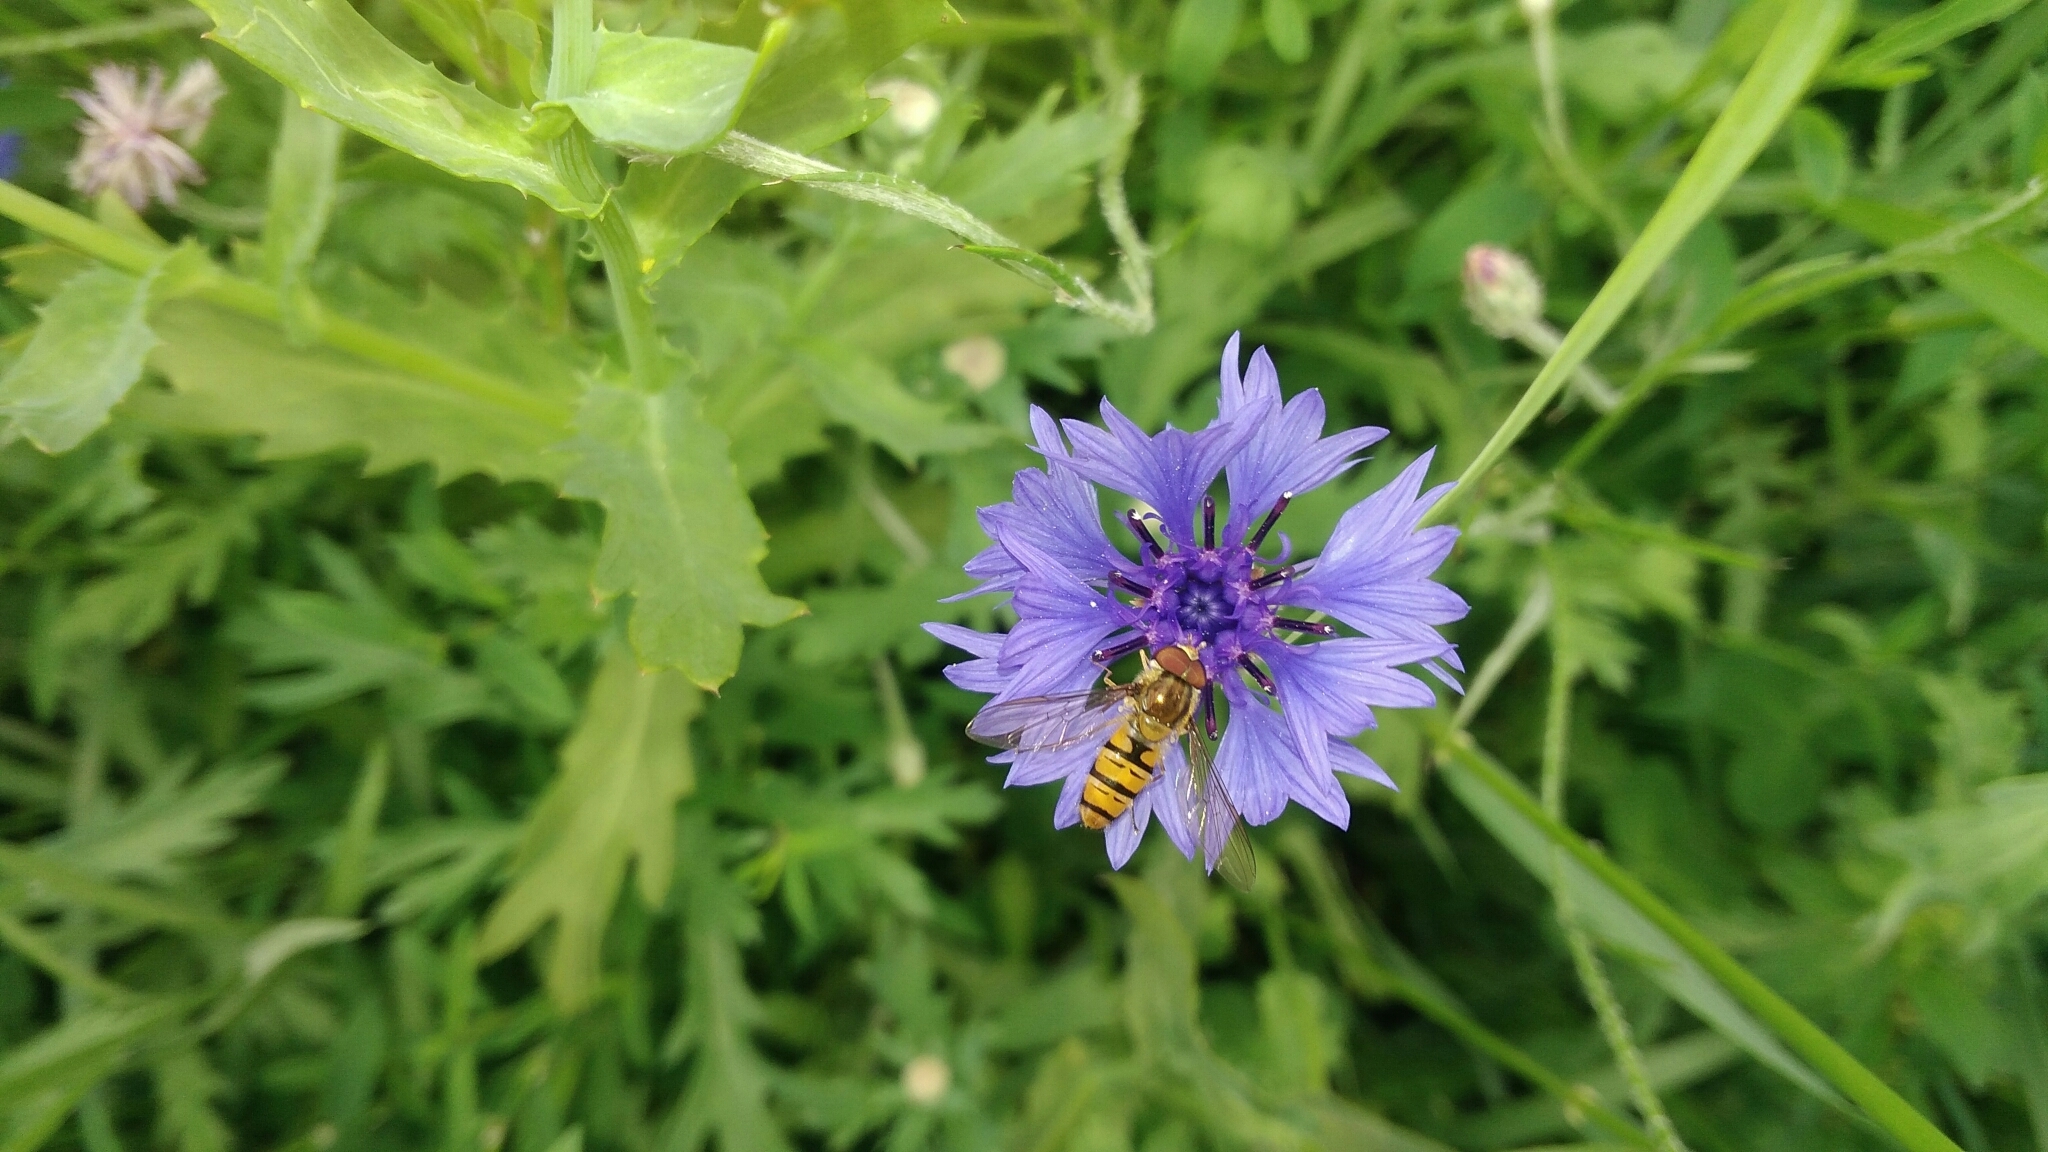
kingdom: Animalia
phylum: Arthropoda
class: Insecta
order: Diptera
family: Syrphidae
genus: Episyrphus
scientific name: Episyrphus balteatus
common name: Marmalade hoverfly
